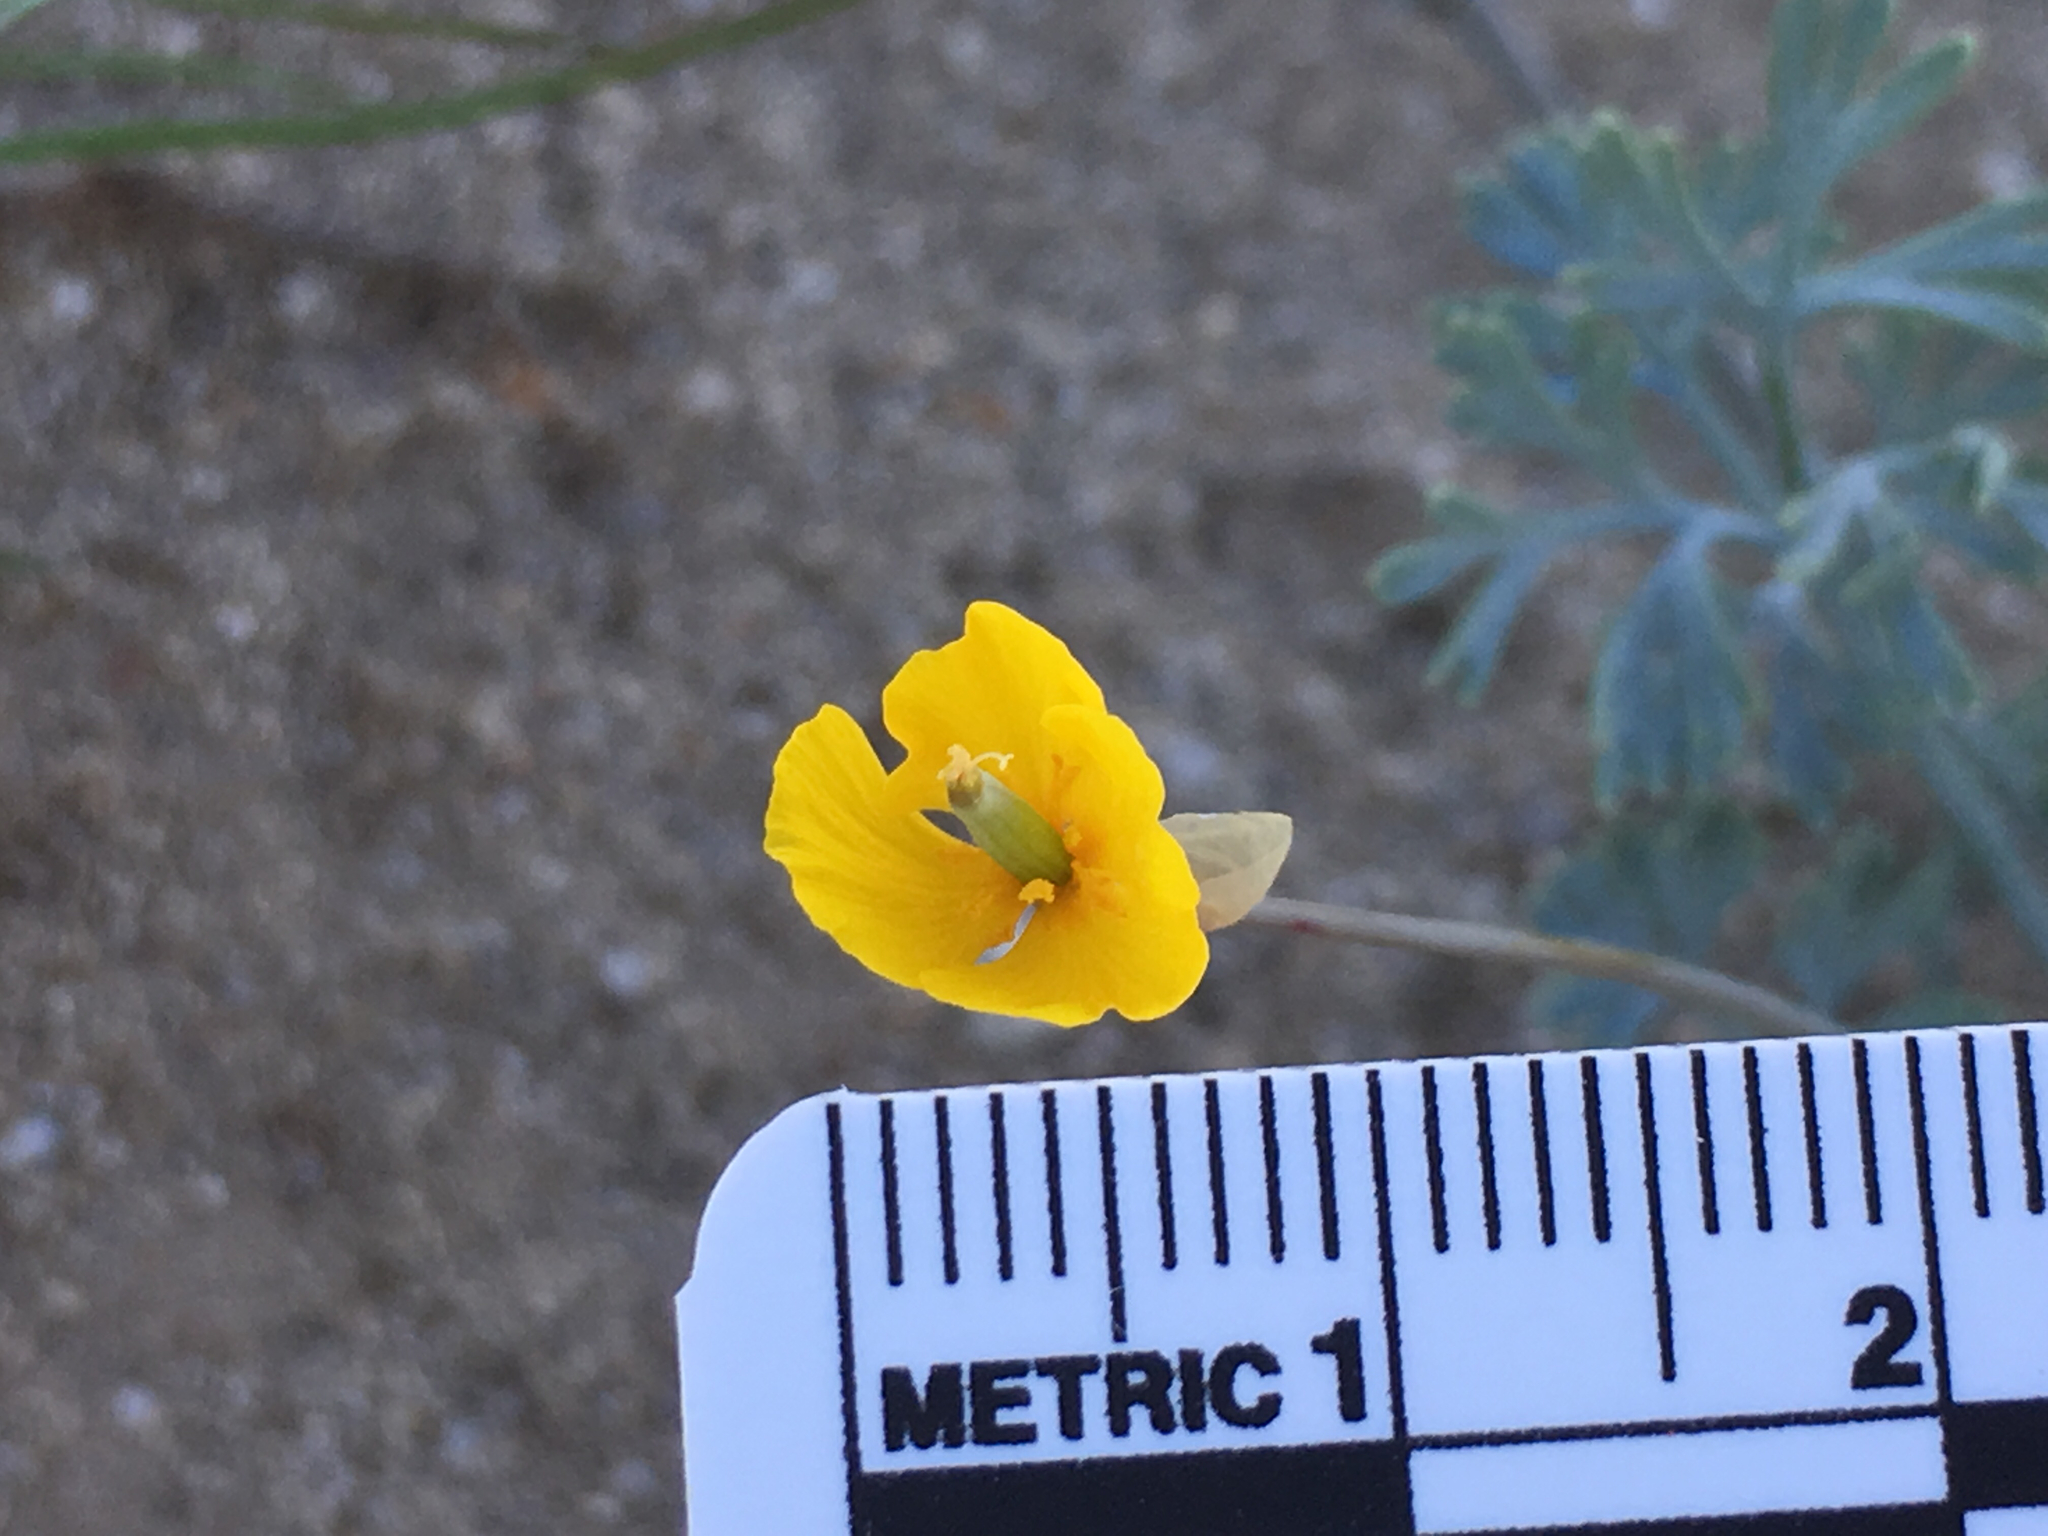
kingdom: Plantae
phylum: Tracheophyta
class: Magnoliopsida
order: Ranunculales
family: Papaveraceae
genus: Eschscholzia
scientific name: Eschscholzia minutiflora
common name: Small-flower california-poppy
